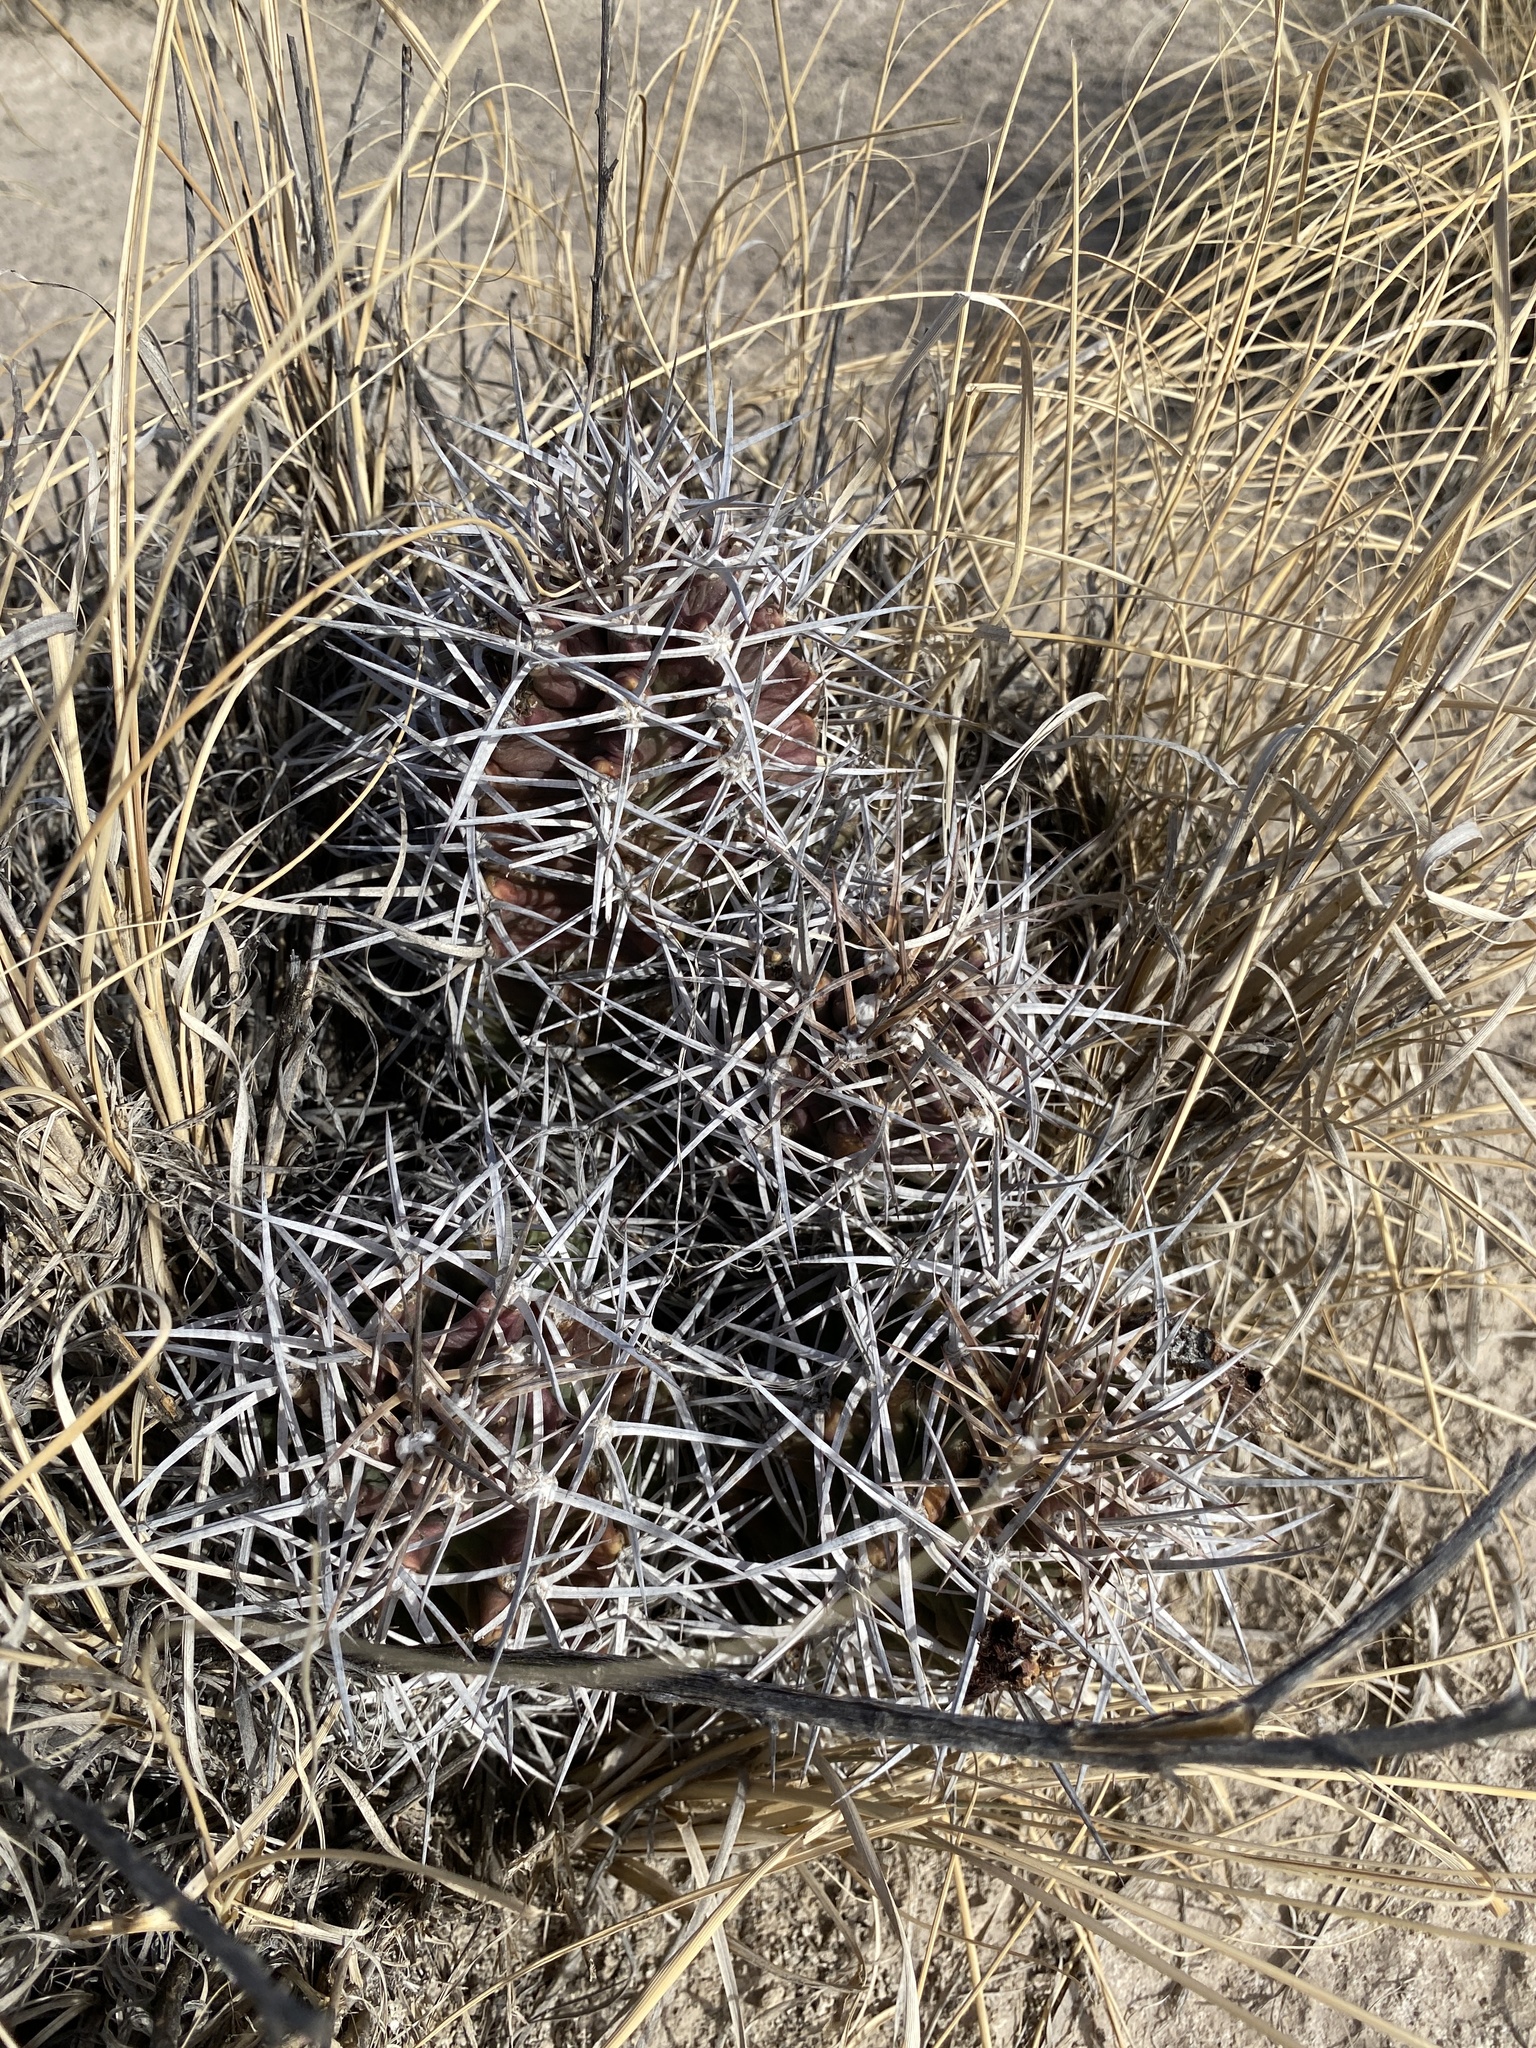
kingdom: Plantae
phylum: Tracheophyta
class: Magnoliopsida
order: Caryophyllales
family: Cactaceae
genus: Echinocereus
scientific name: Echinocereus triglochidiatus
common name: Claretcup hedgehog
